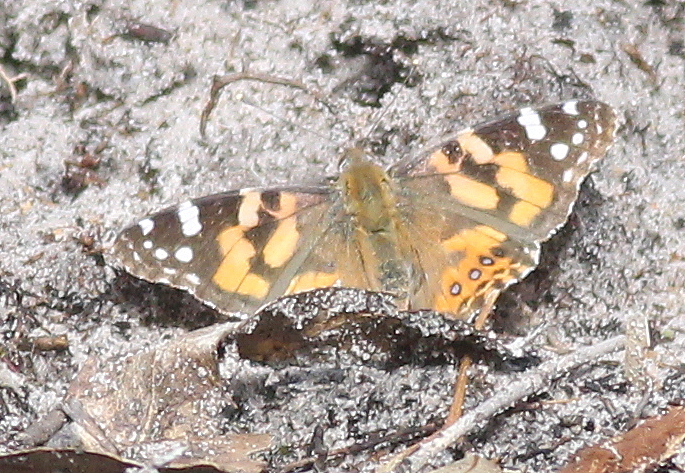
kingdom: Animalia
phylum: Arthropoda
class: Insecta
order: Lepidoptera
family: Nymphalidae
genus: Vanessa
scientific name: Vanessa kershawi
